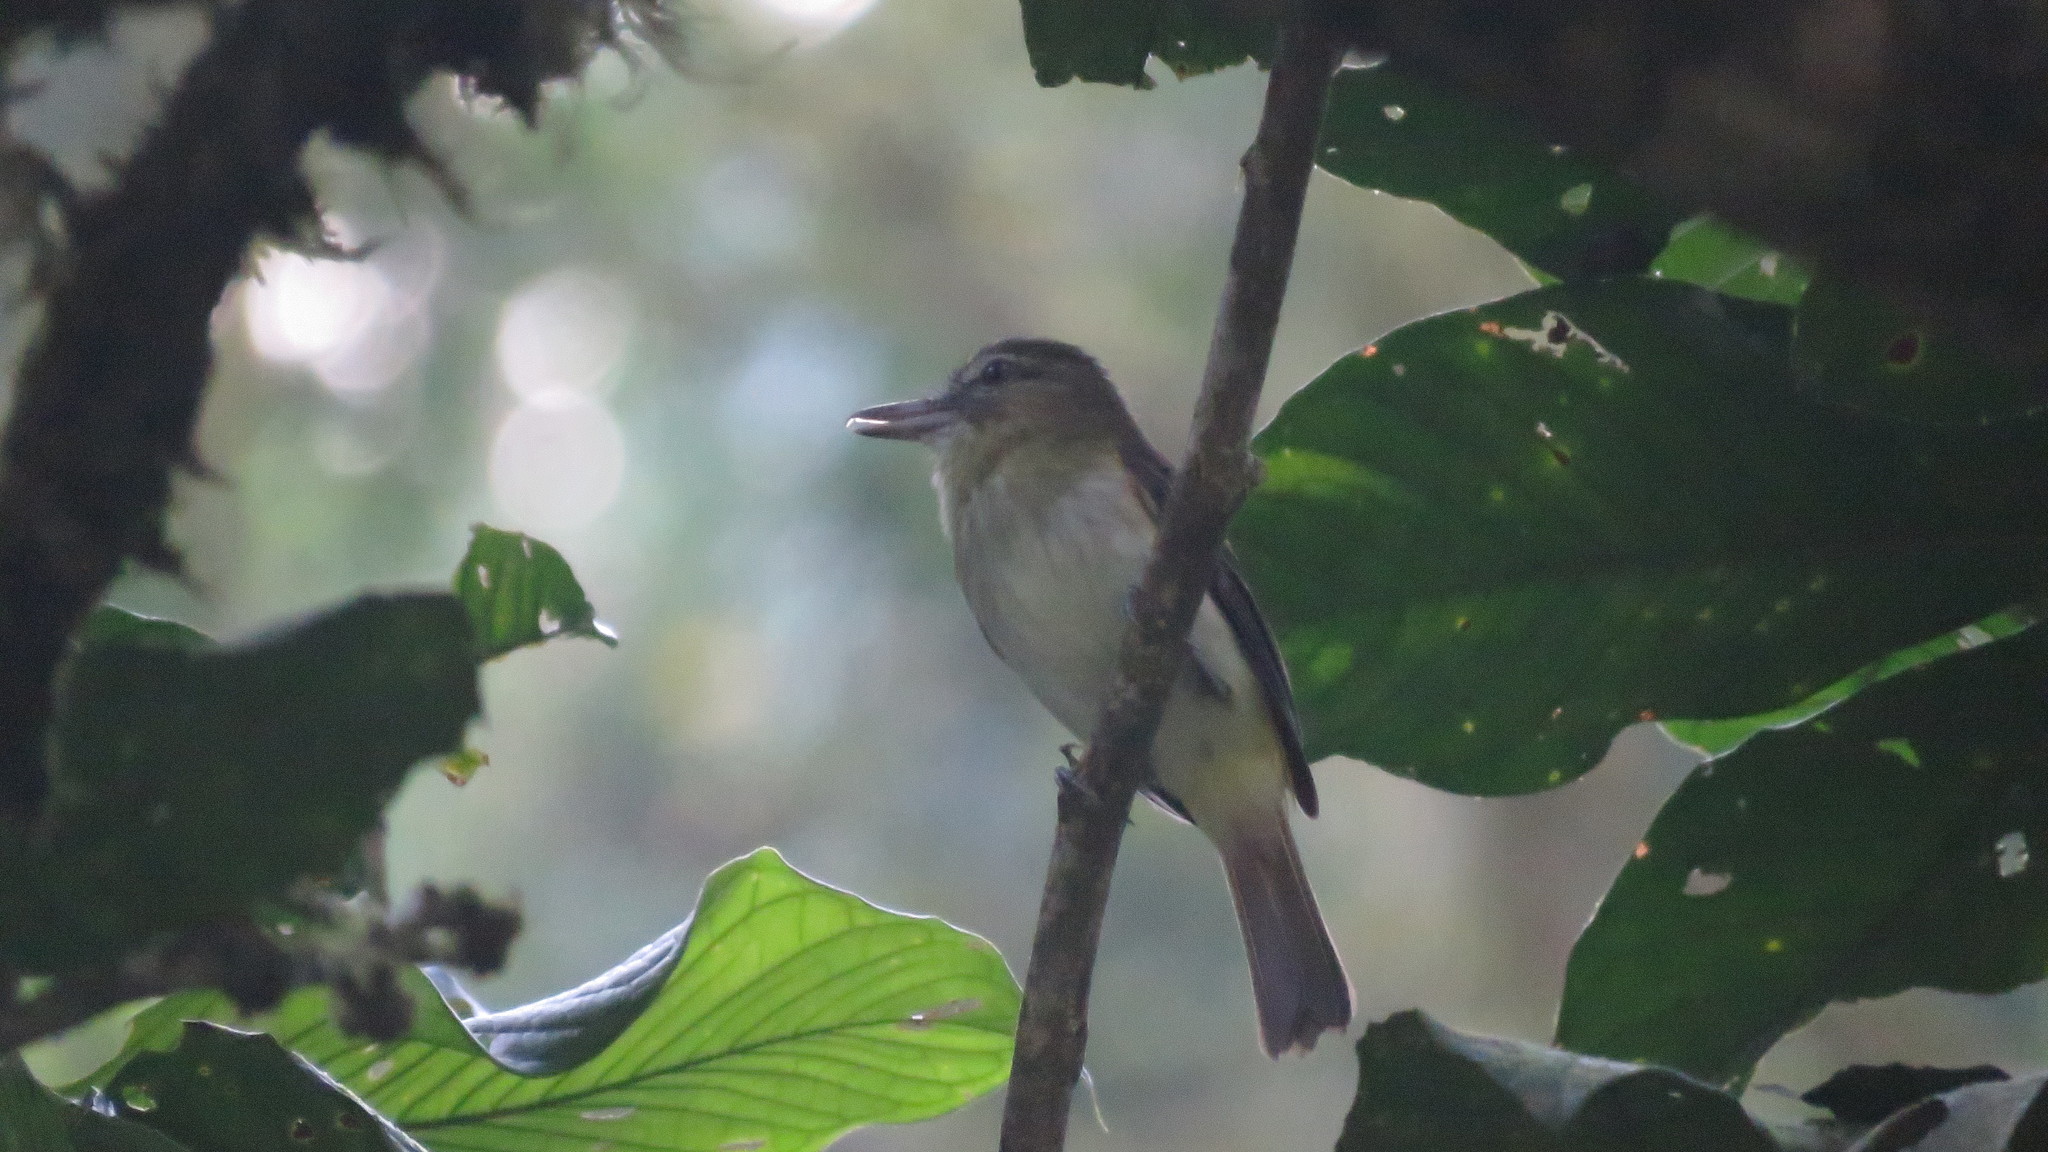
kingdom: Animalia
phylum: Chordata
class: Aves
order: Passeriformes
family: Tyrannidae
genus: Attila
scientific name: Attila spadiceus
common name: Bright-rumped attila
